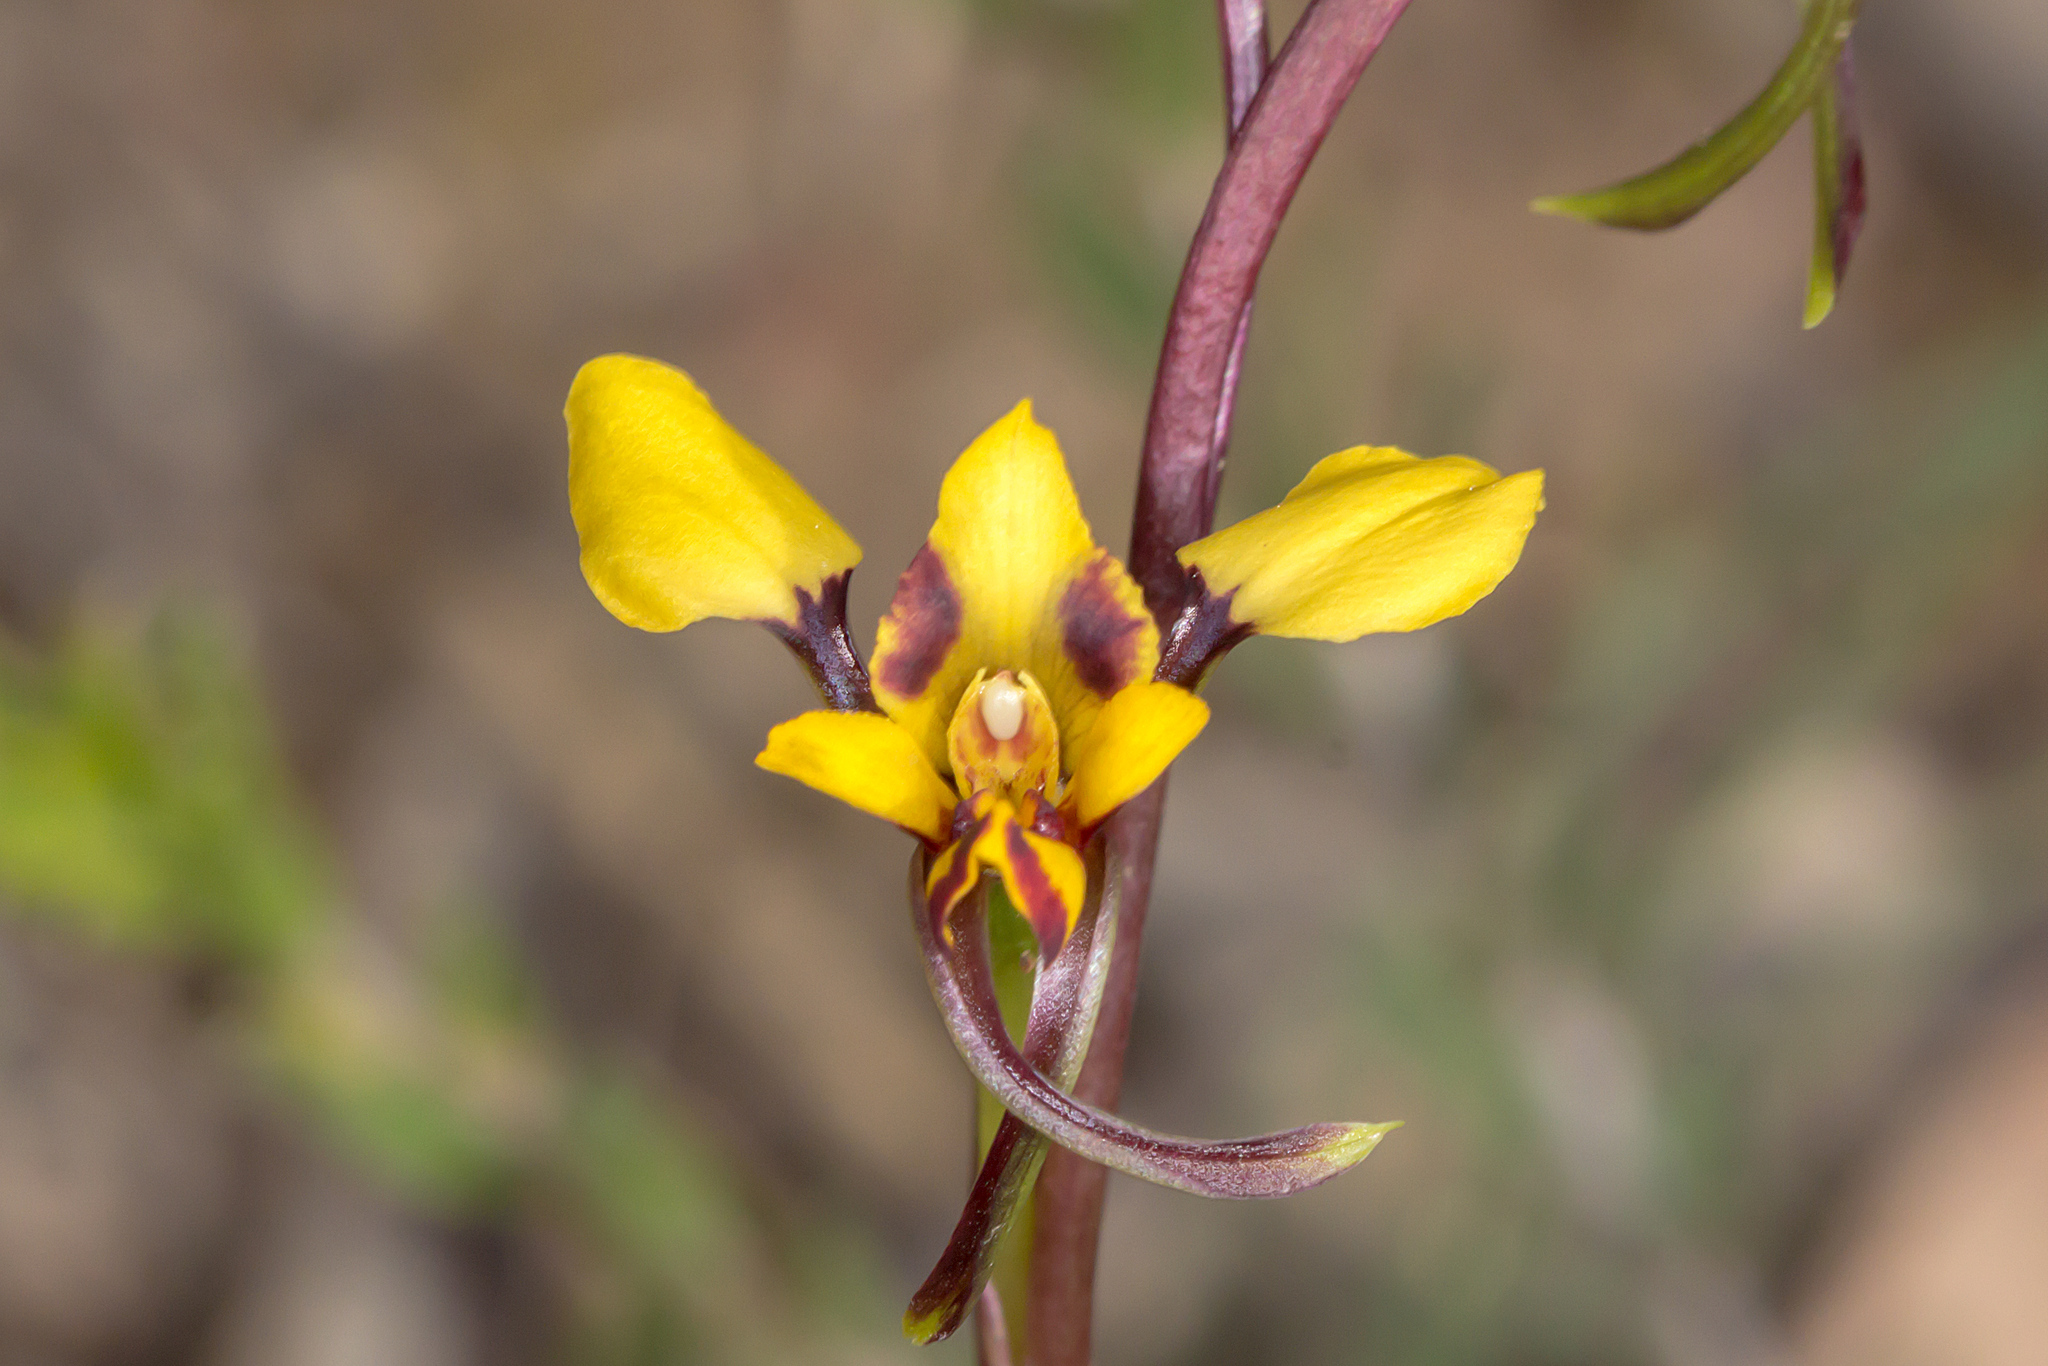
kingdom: Plantae
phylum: Tracheophyta
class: Liliopsida
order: Asparagales
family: Orchidaceae
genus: Diuris
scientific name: Diuris pardina
